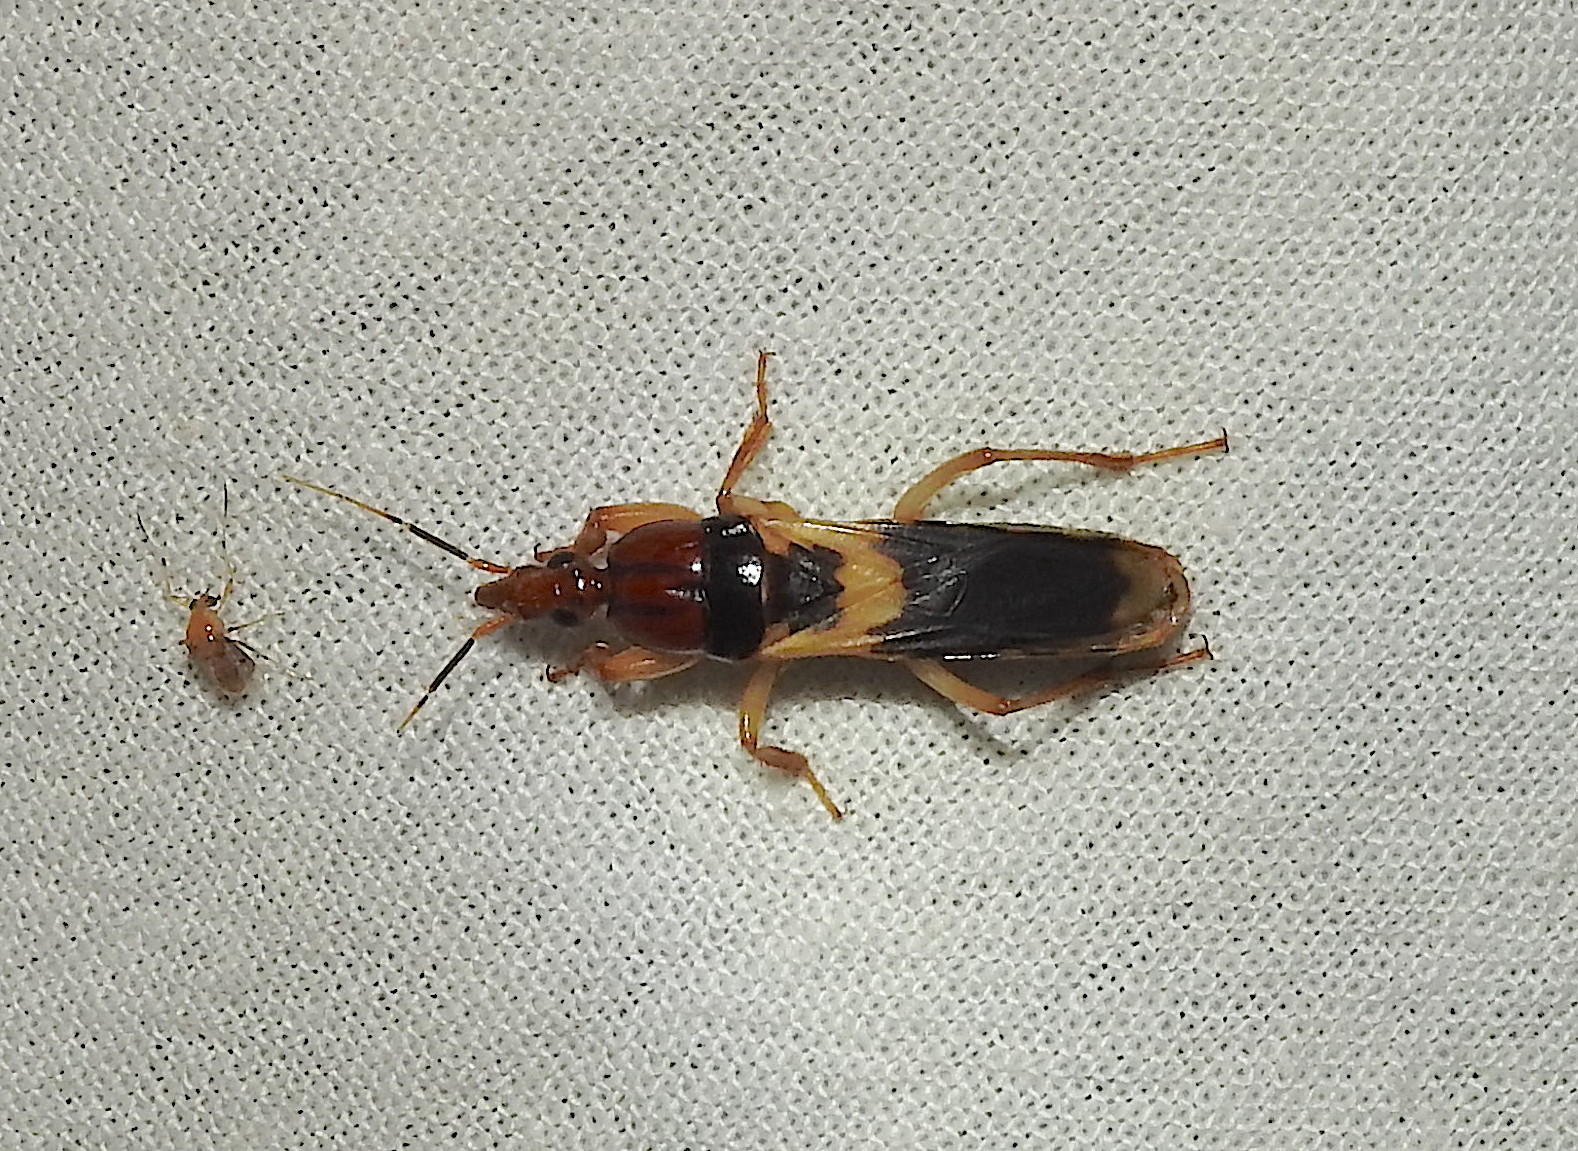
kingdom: Animalia
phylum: Arthropoda
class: Insecta
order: Hemiptera
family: Reduviidae
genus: Sirthenea
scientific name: Sirthenea flavipes
